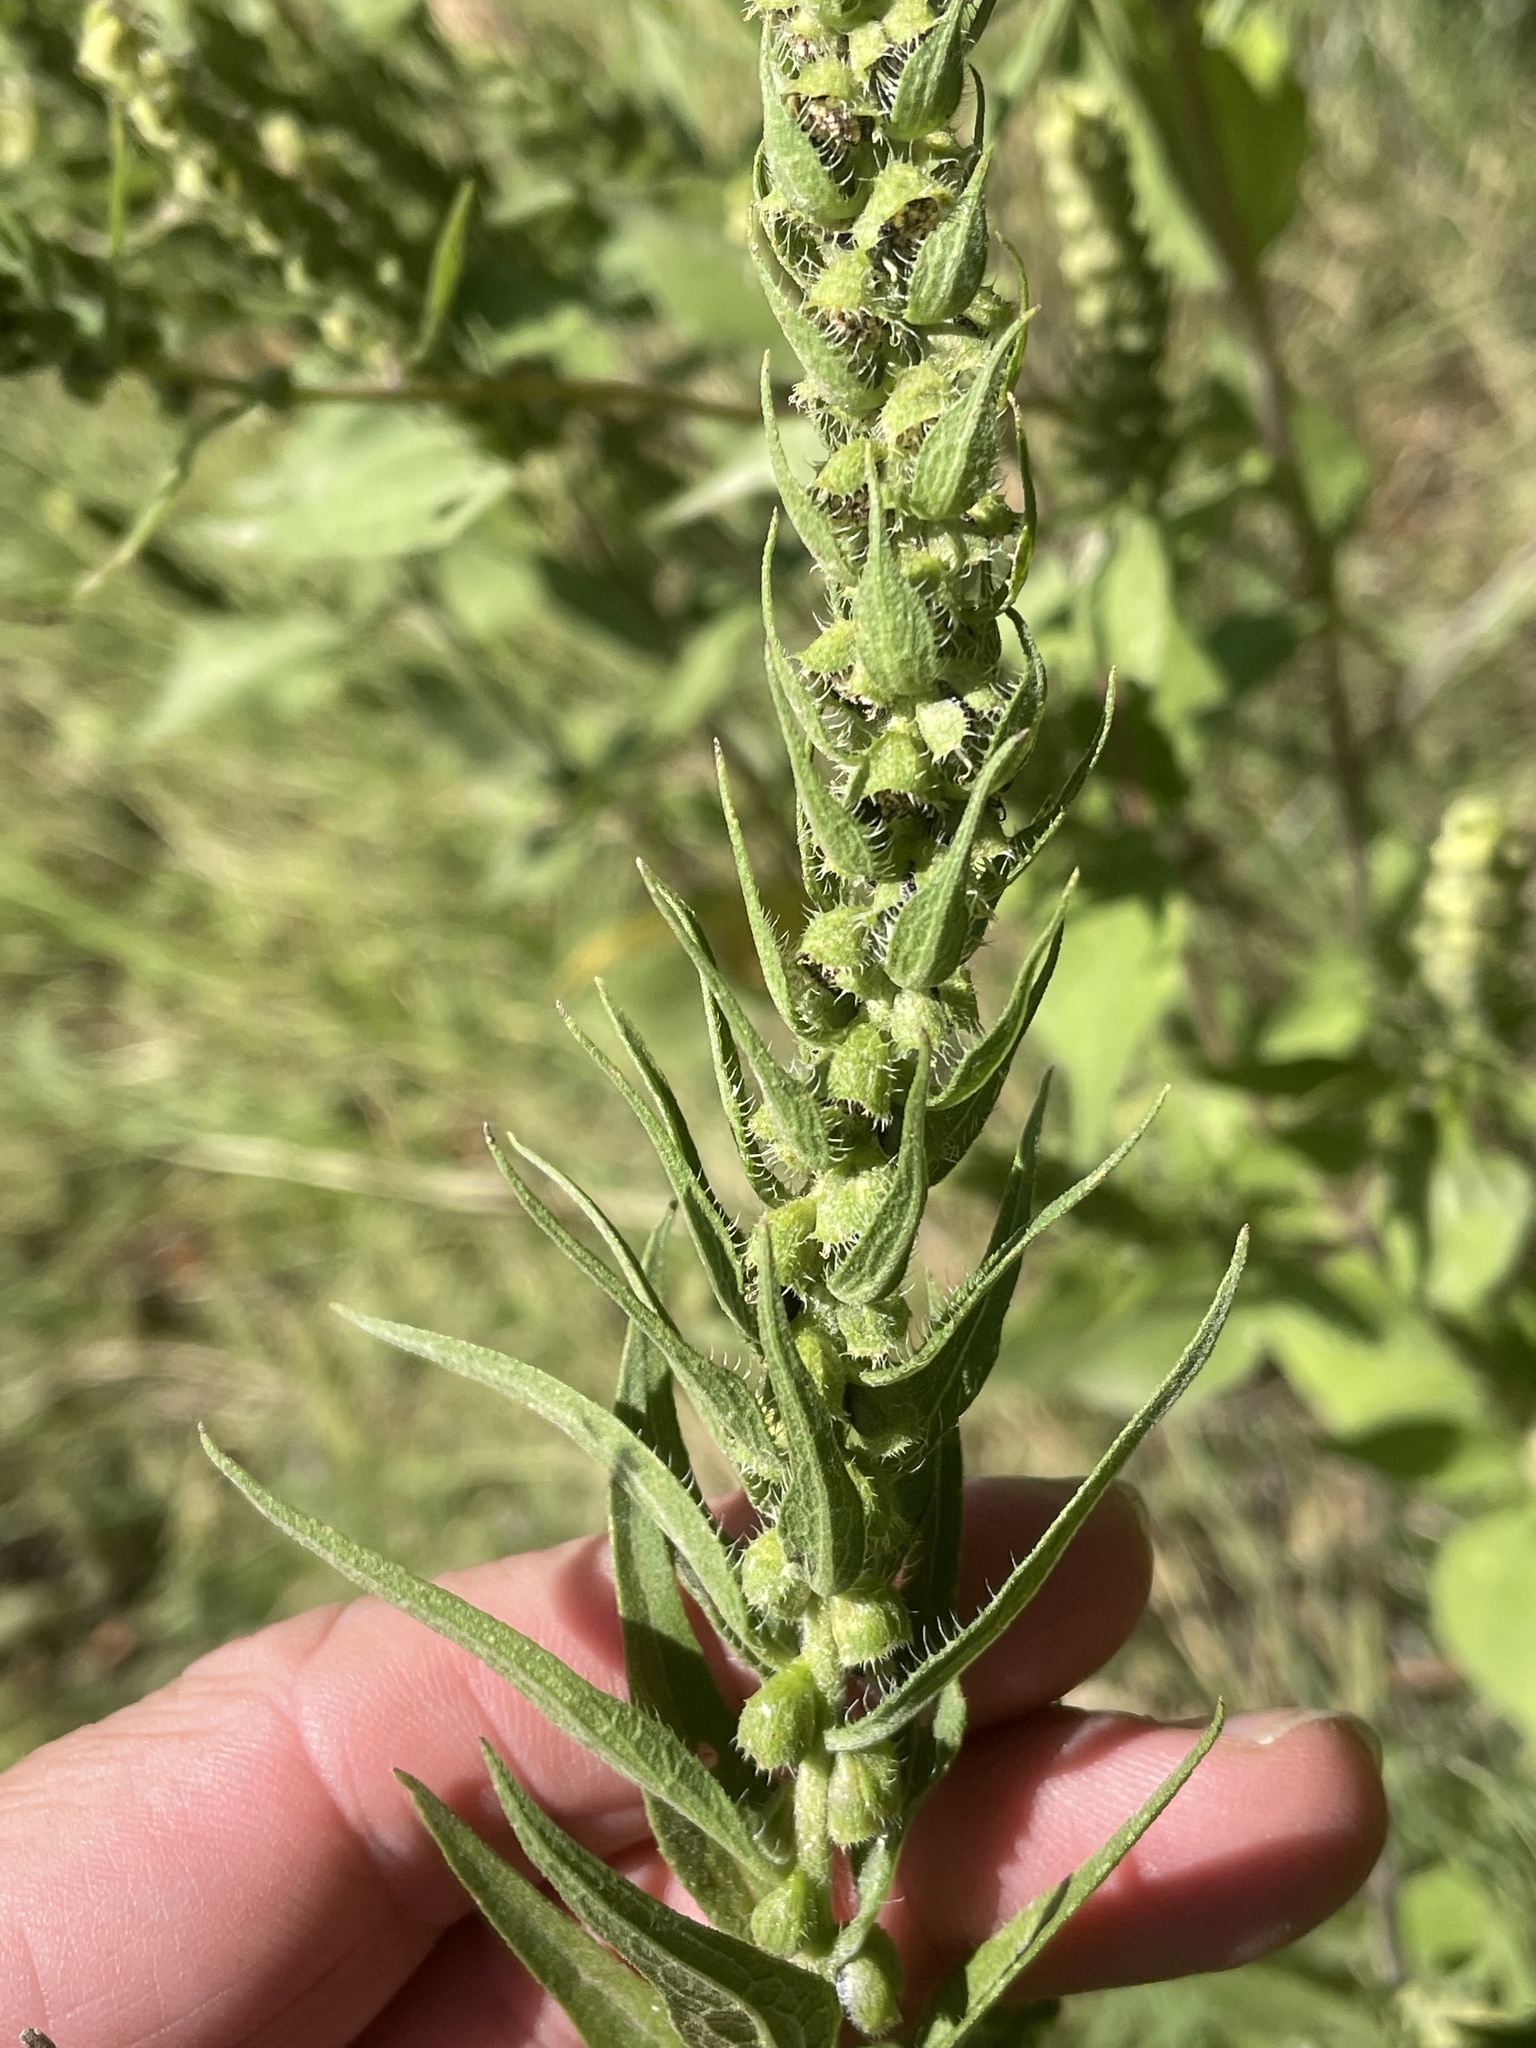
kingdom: Plantae
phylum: Tracheophyta
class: Magnoliopsida
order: Asterales
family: Asteraceae
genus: Iva
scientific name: Iva annua
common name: Marsh-elder
